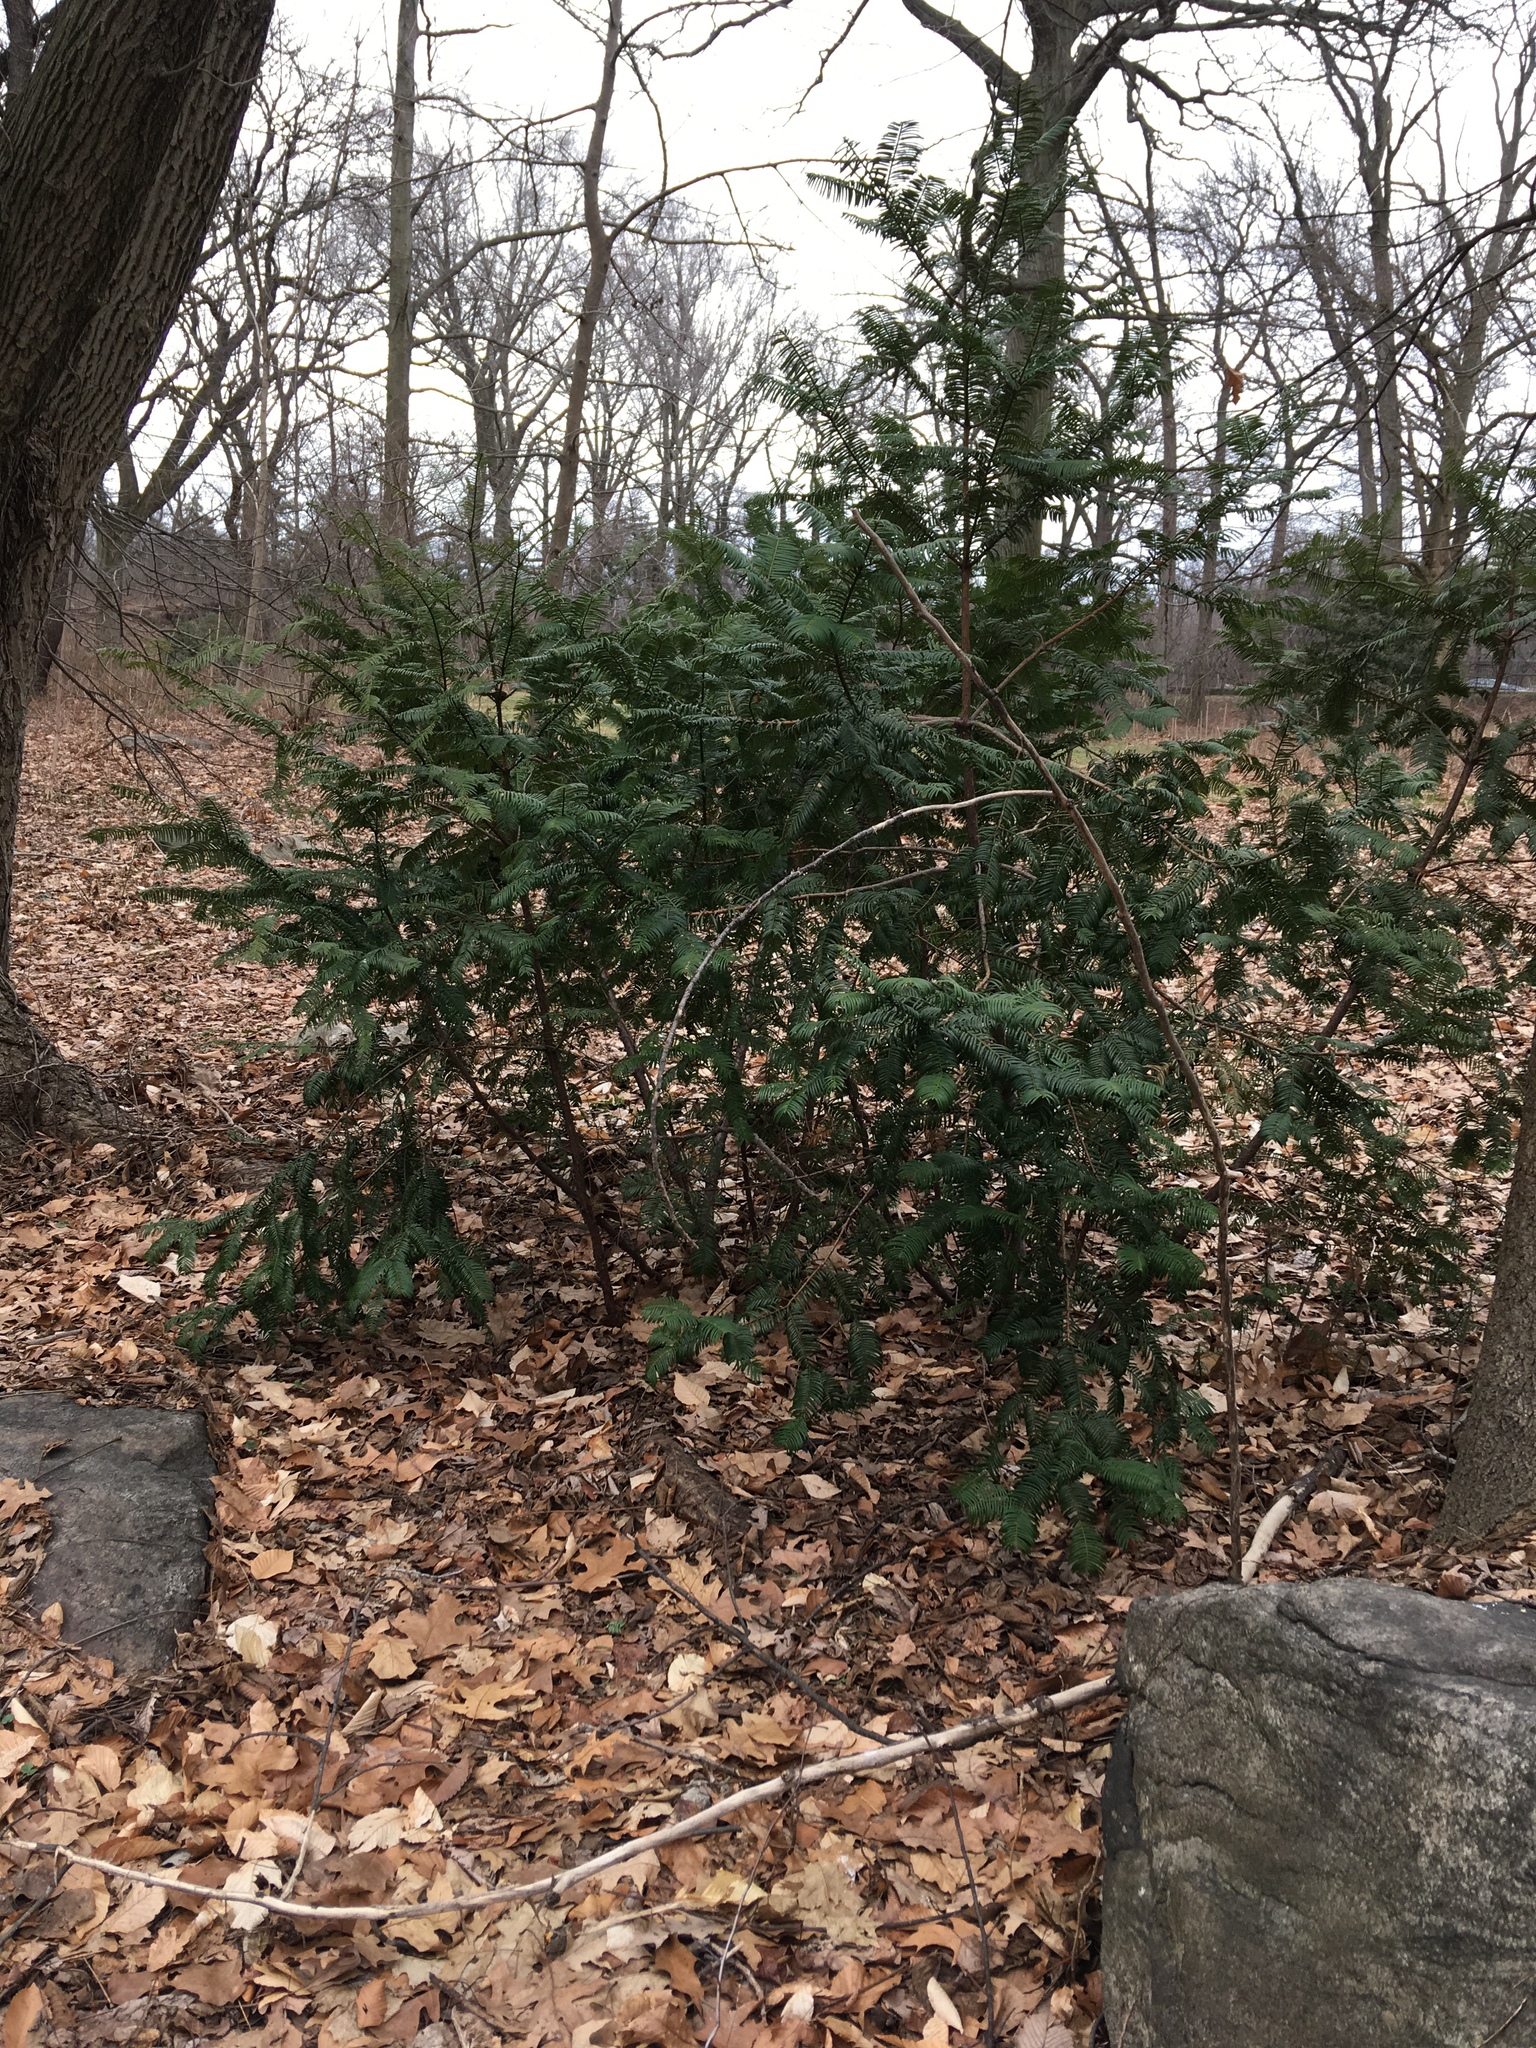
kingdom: Plantae
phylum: Tracheophyta
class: Pinopsida
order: Pinales
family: Cephalotaxaceae
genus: Cephalotaxus
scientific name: Cephalotaxus harringtonia
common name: Japanese plum-yew
